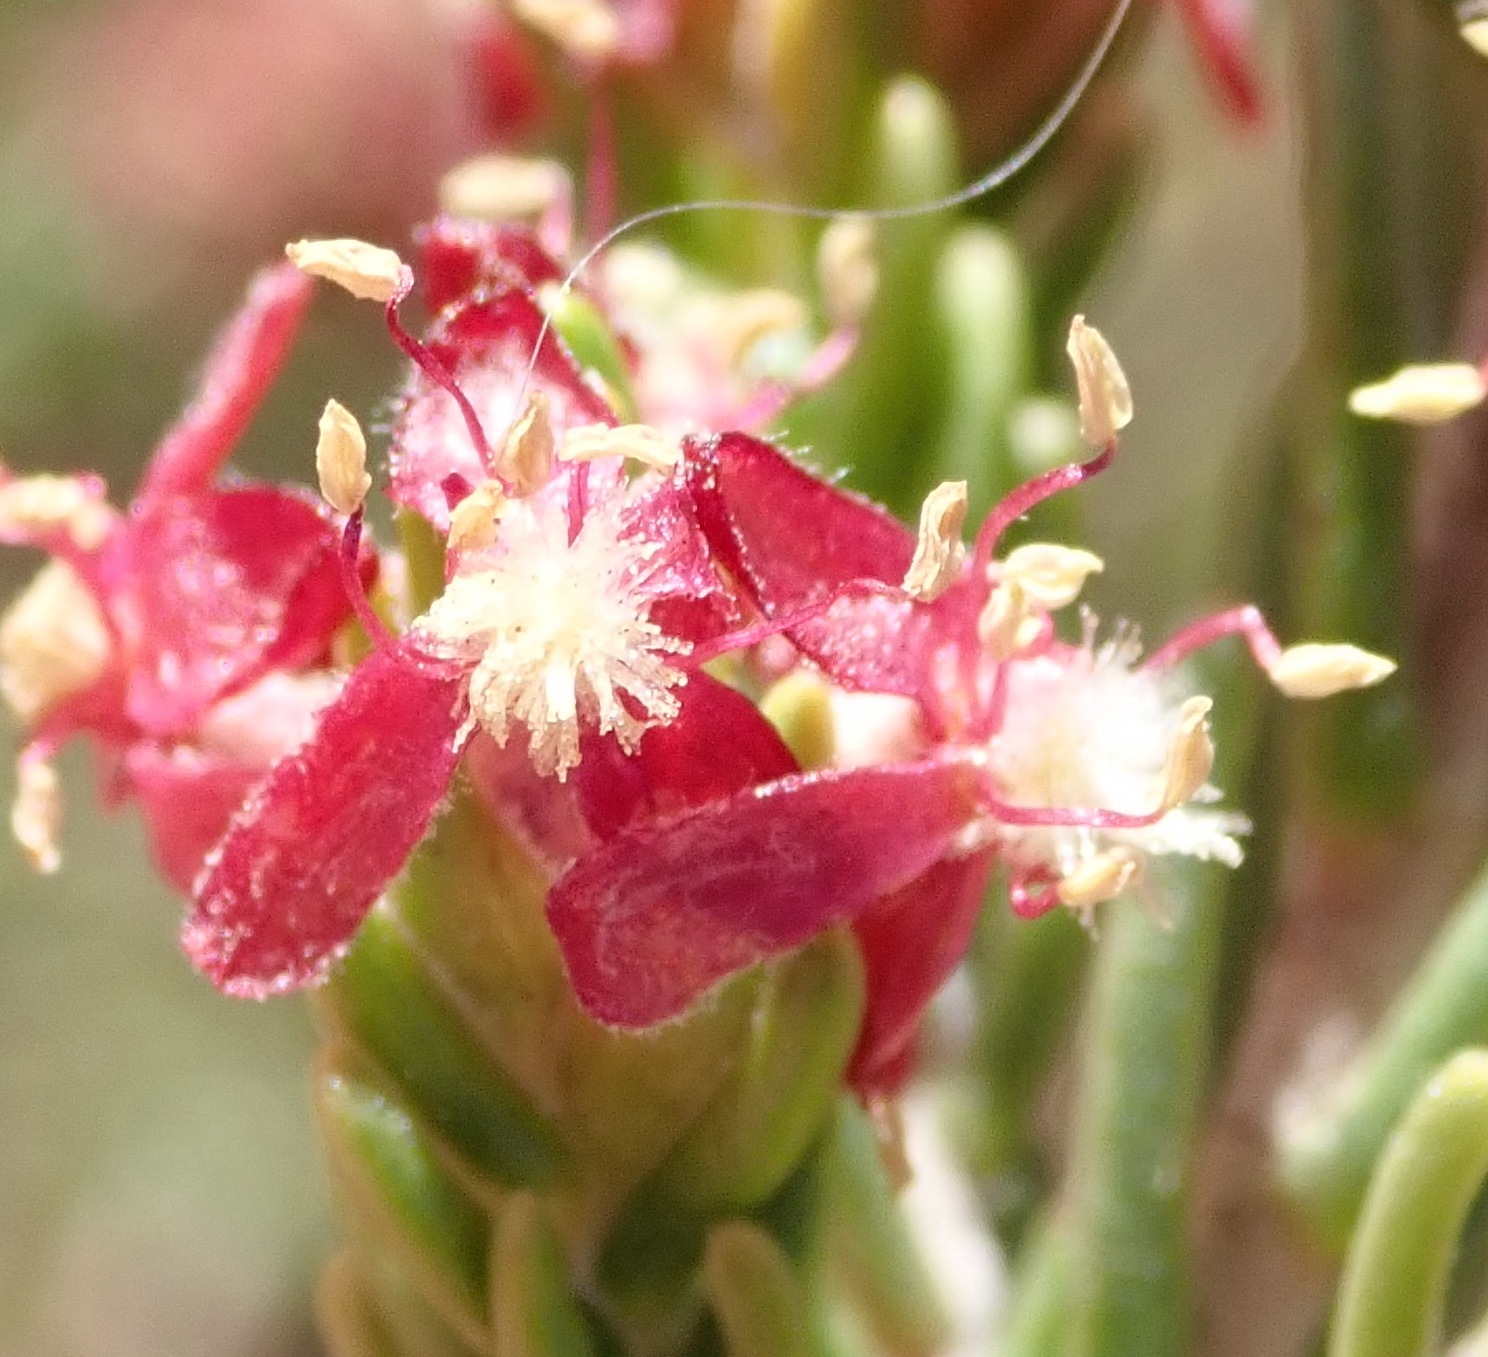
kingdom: Plantae
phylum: Tracheophyta
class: Magnoliopsida
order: Malvales
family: Thymelaeaceae
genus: Passerina
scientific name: Passerina obtusifolia
